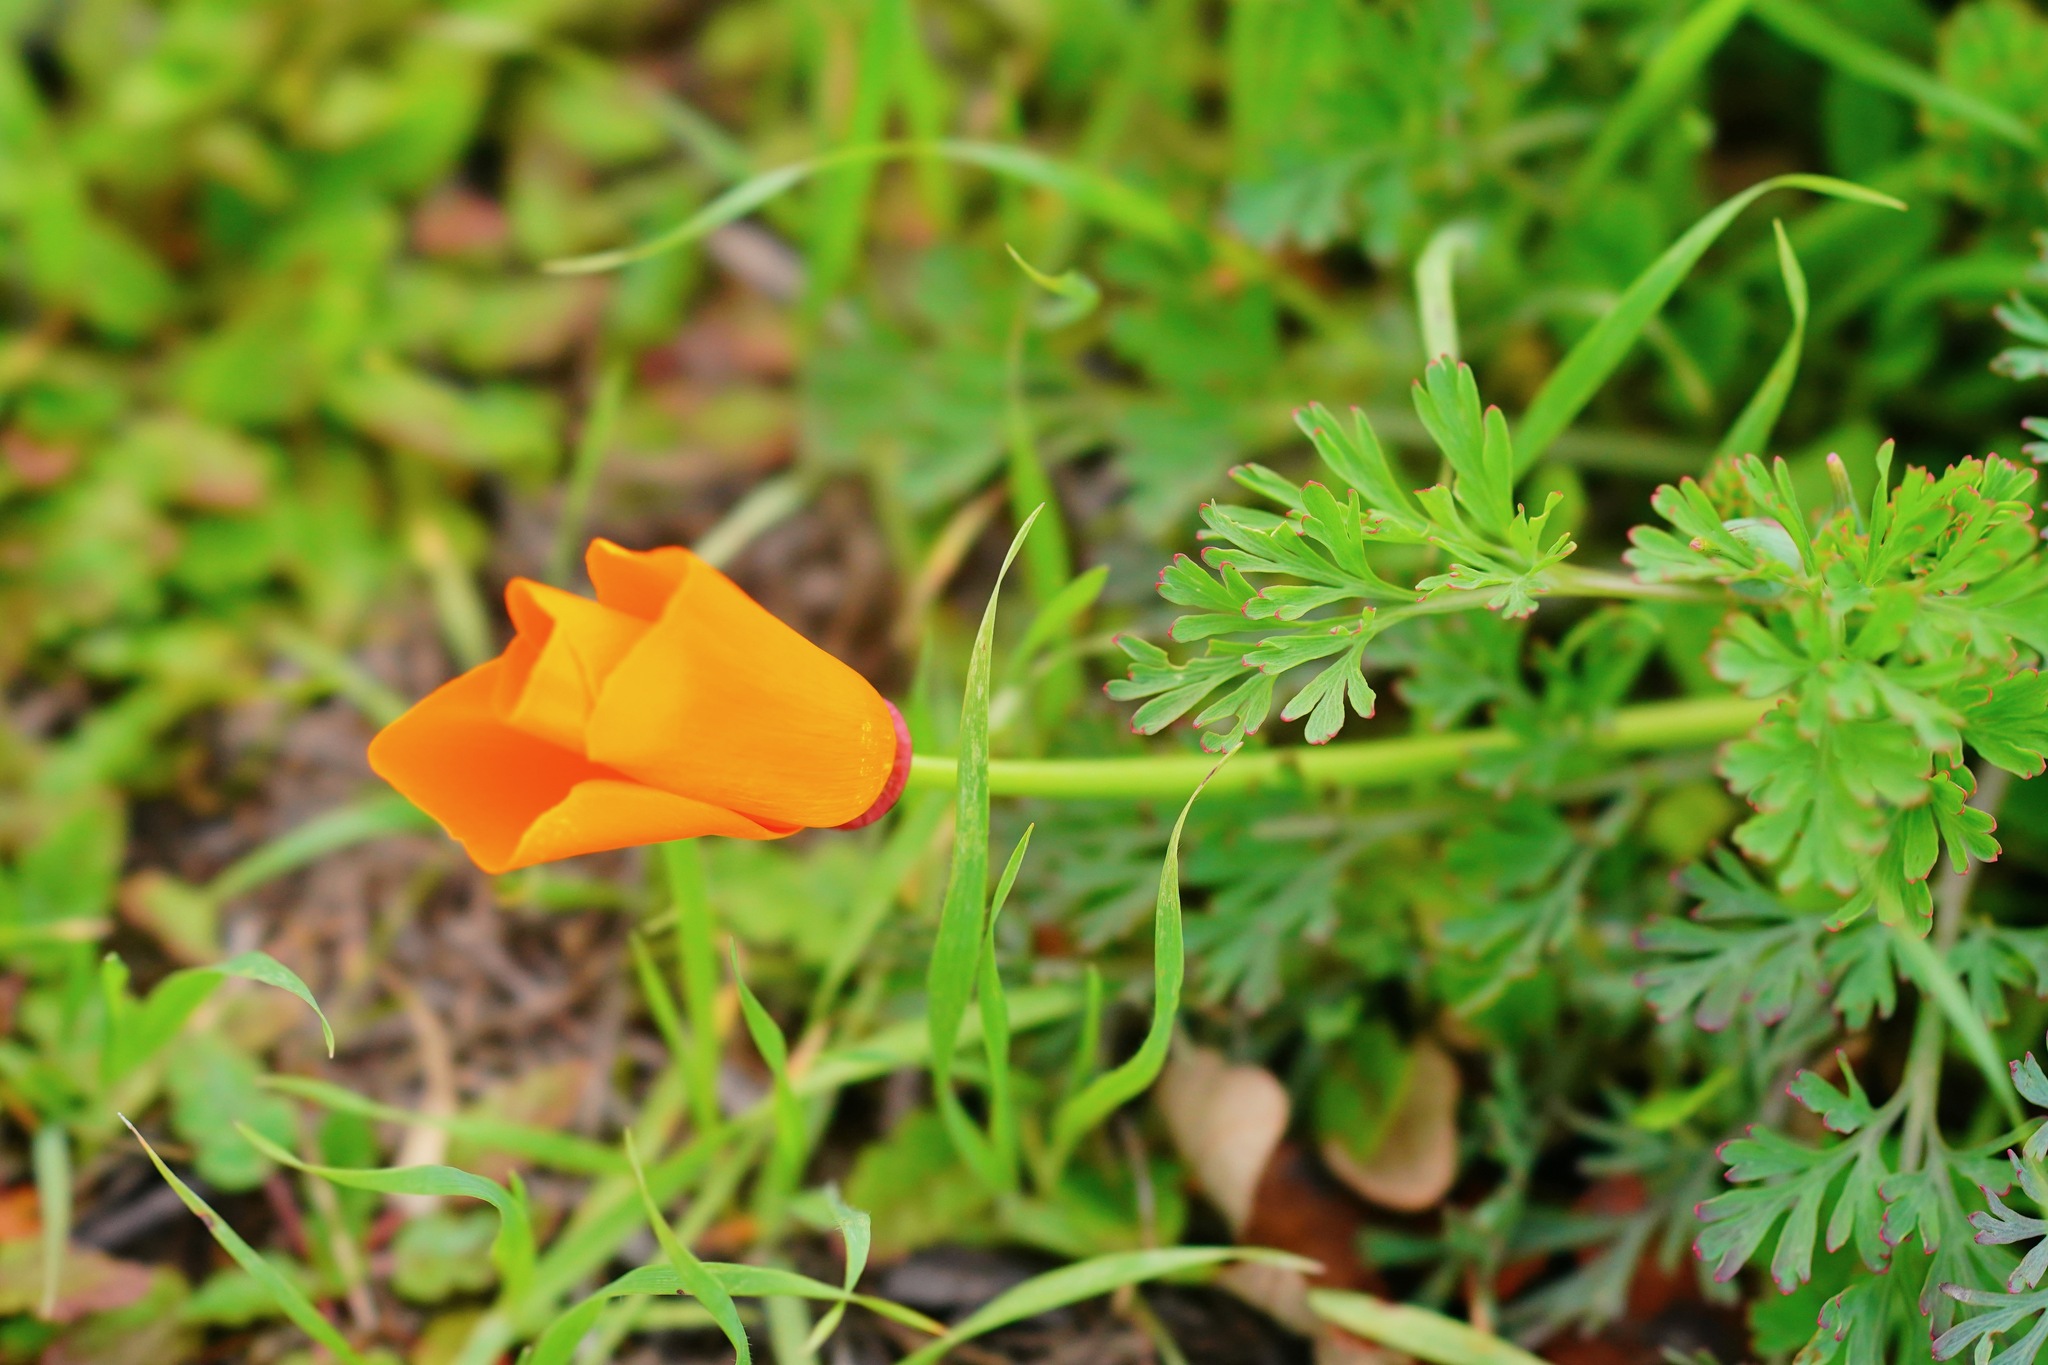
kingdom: Plantae
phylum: Tracheophyta
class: Magnoliopsida
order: Ranunculales
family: Papaveraceae
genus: Eschscholzia
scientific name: Eschscholzia californica
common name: California poppy
